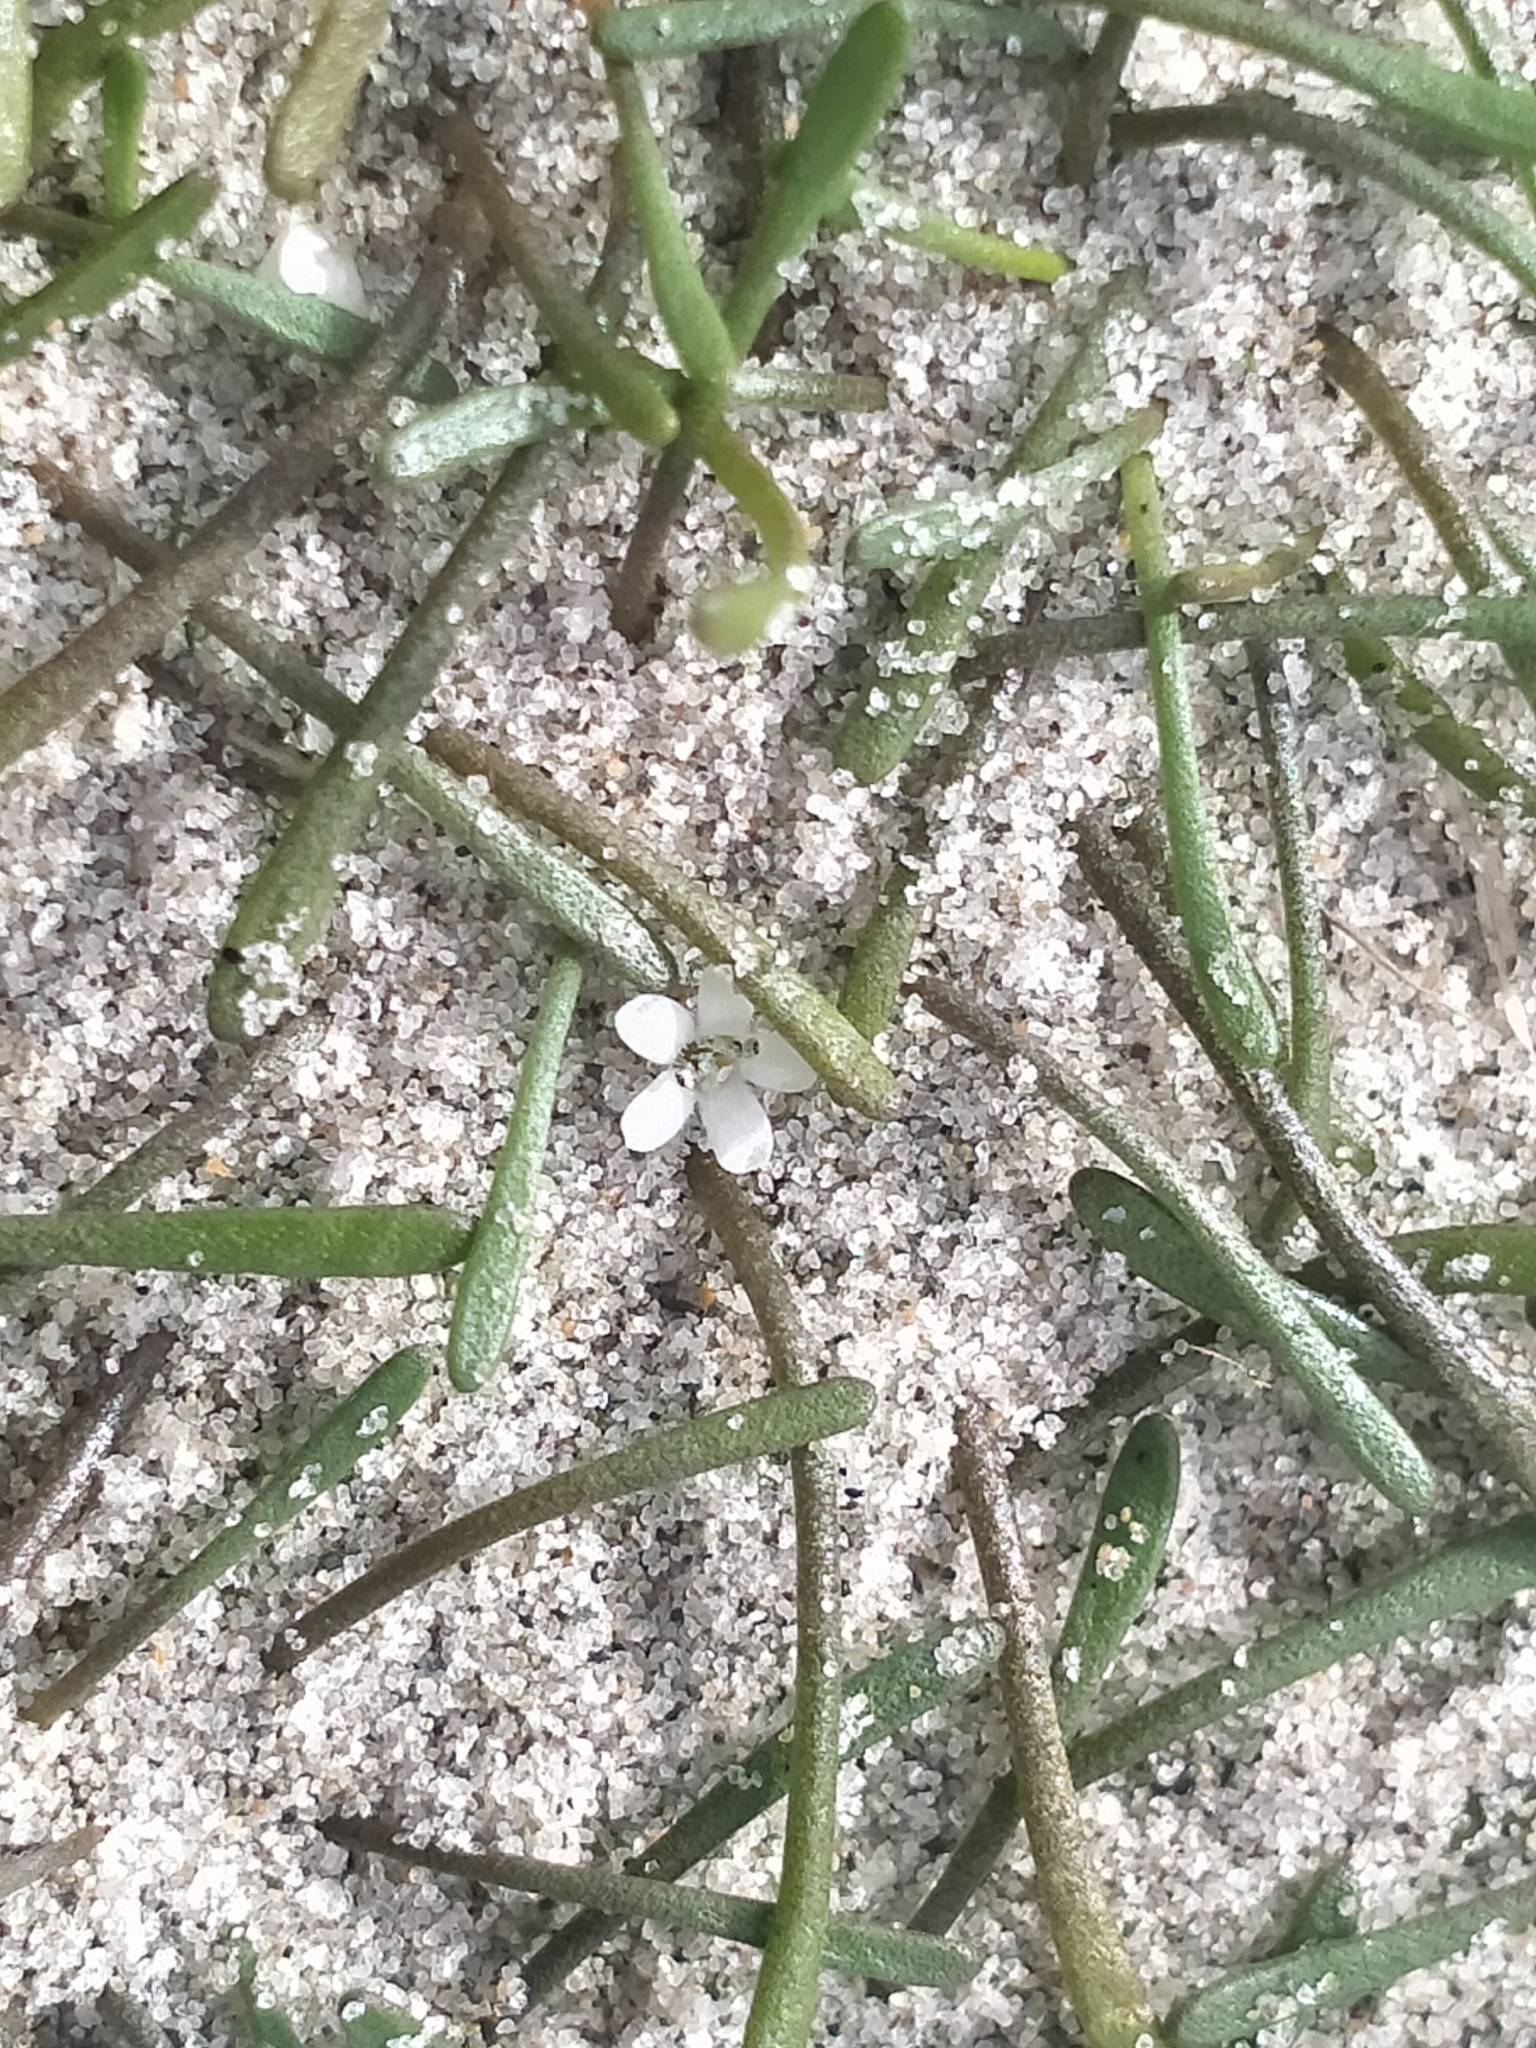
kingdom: Plantae
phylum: Tracheophyta
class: Magnoliopsida
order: Lamiales
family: Scrophulariaceae
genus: Limosella
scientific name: Limosella australis
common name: Welsh mudwort
